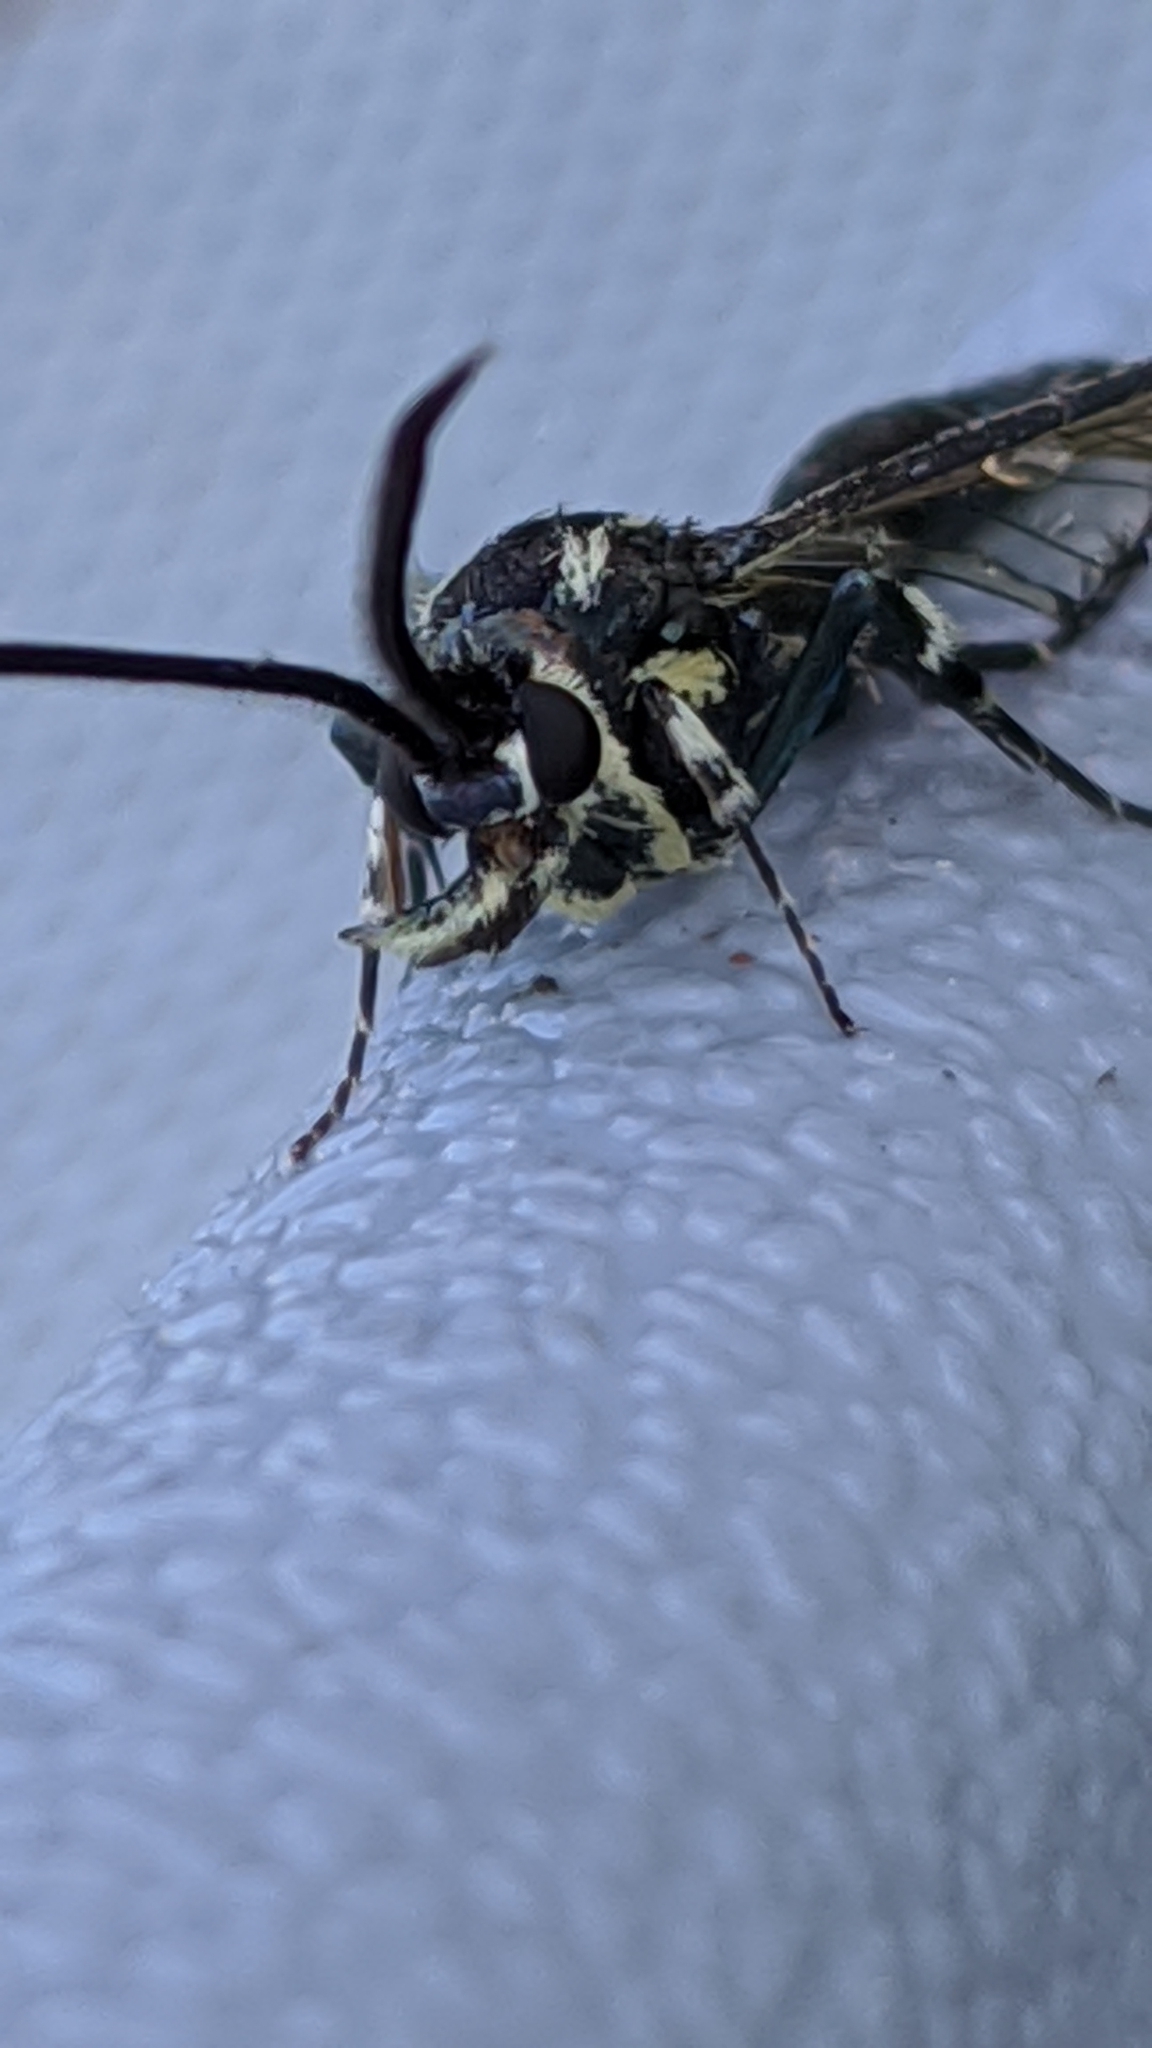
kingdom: Animalia
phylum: Arthropoda
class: Insecta
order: Lepidoptera
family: Sesiidae
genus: Synanthedon
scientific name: Synanthedon pictipes
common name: Lesser peachtree borer moth
